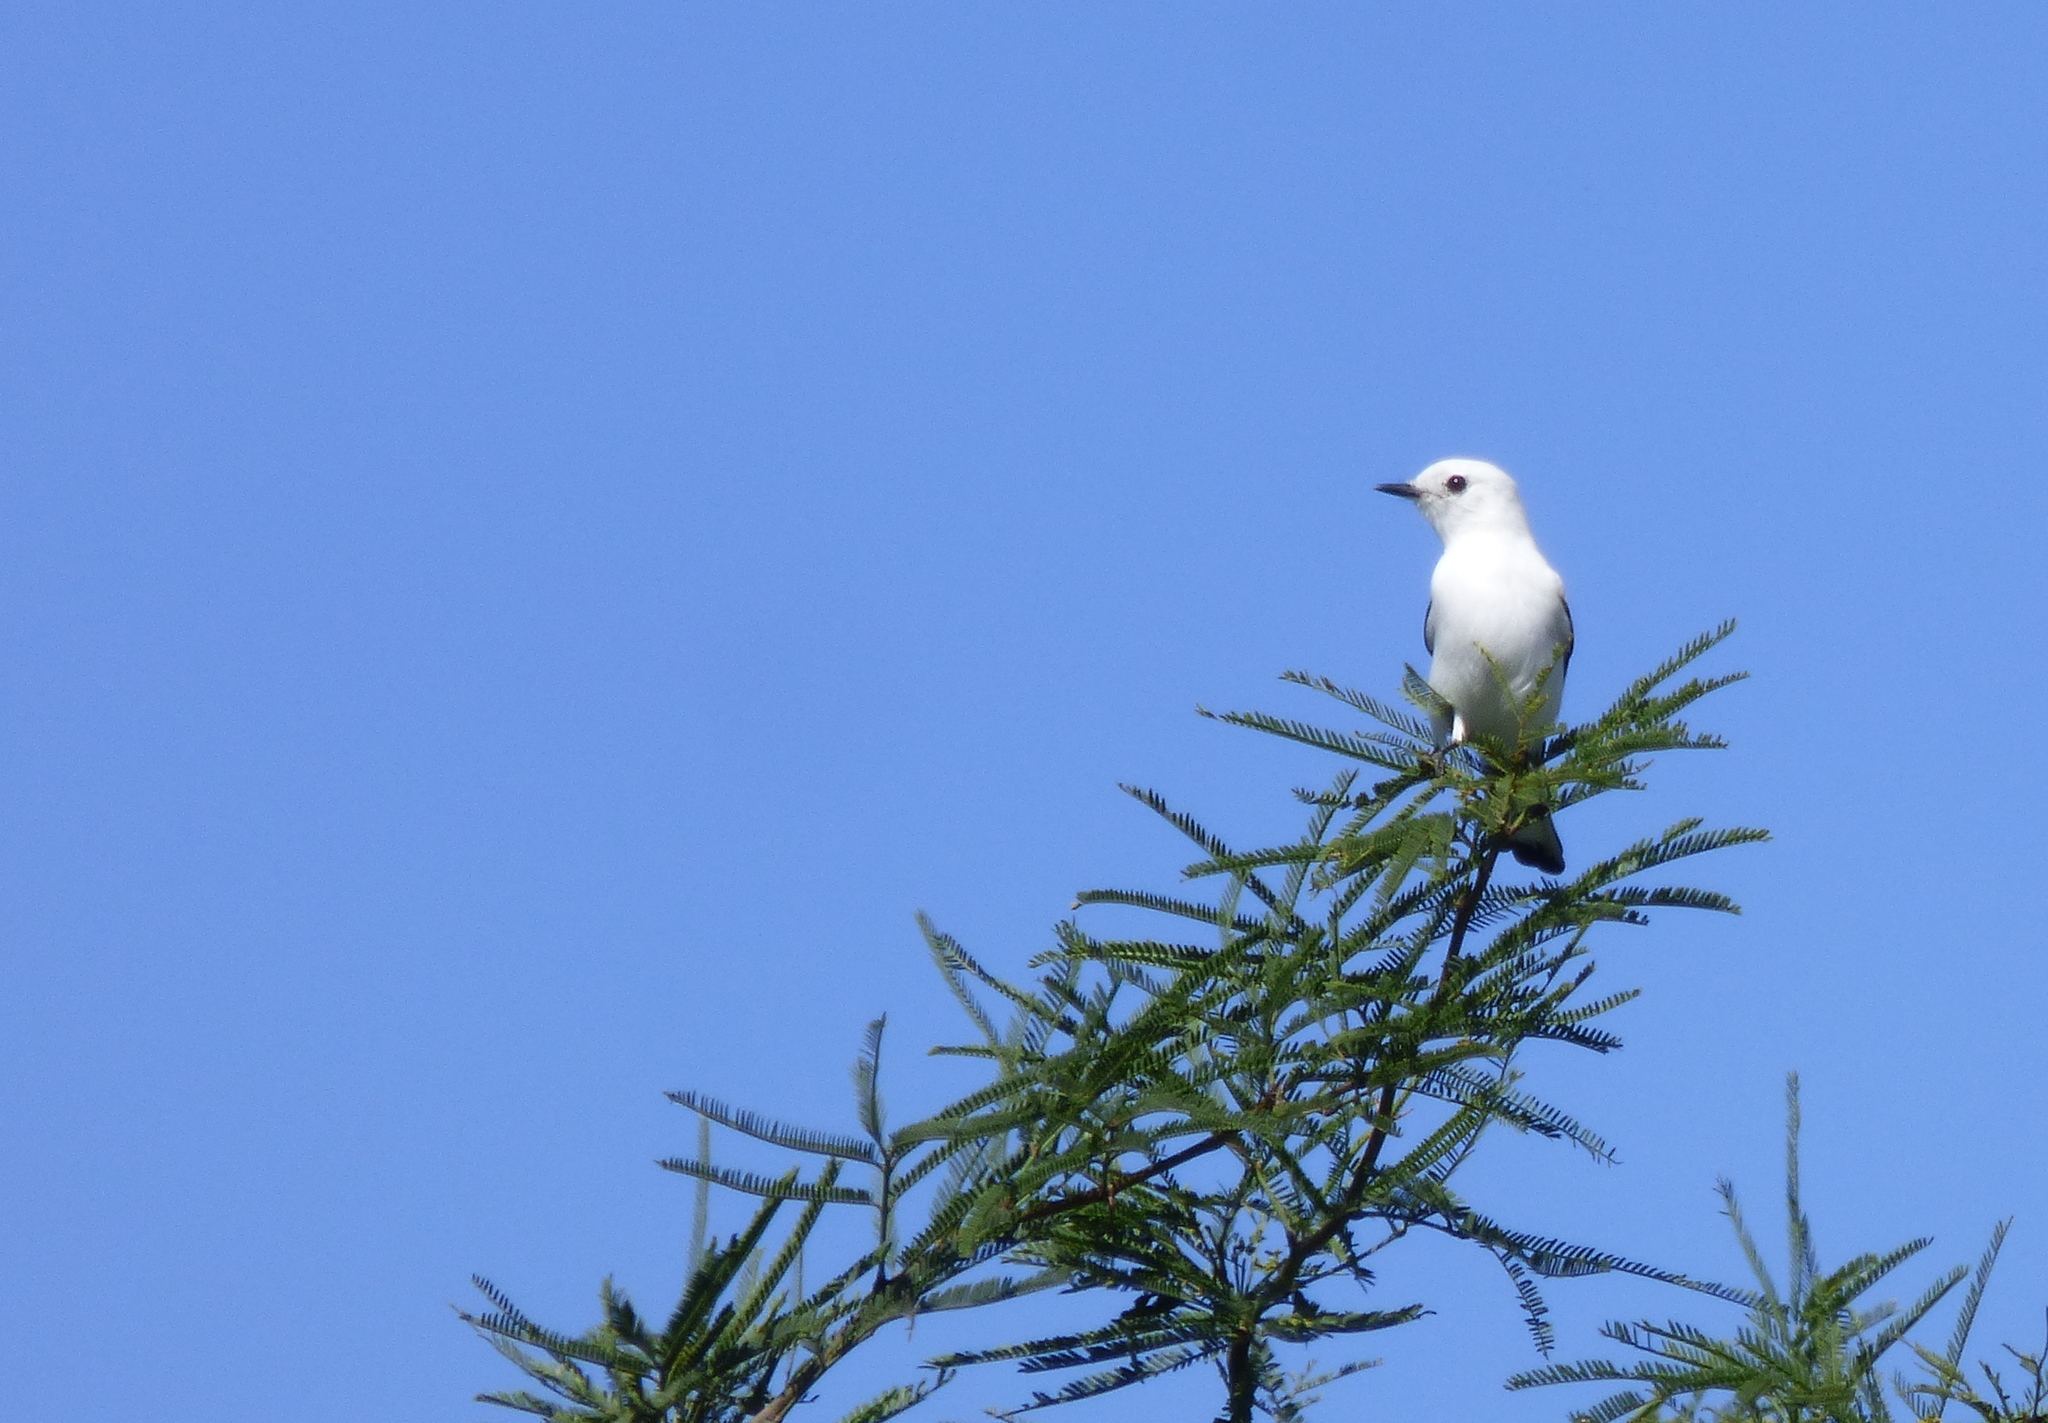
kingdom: Animalia
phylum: Chordata
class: Aves
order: Passeriformes
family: Tyrannidae
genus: Xolmis
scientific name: Xolmis irupero
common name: White monjita
